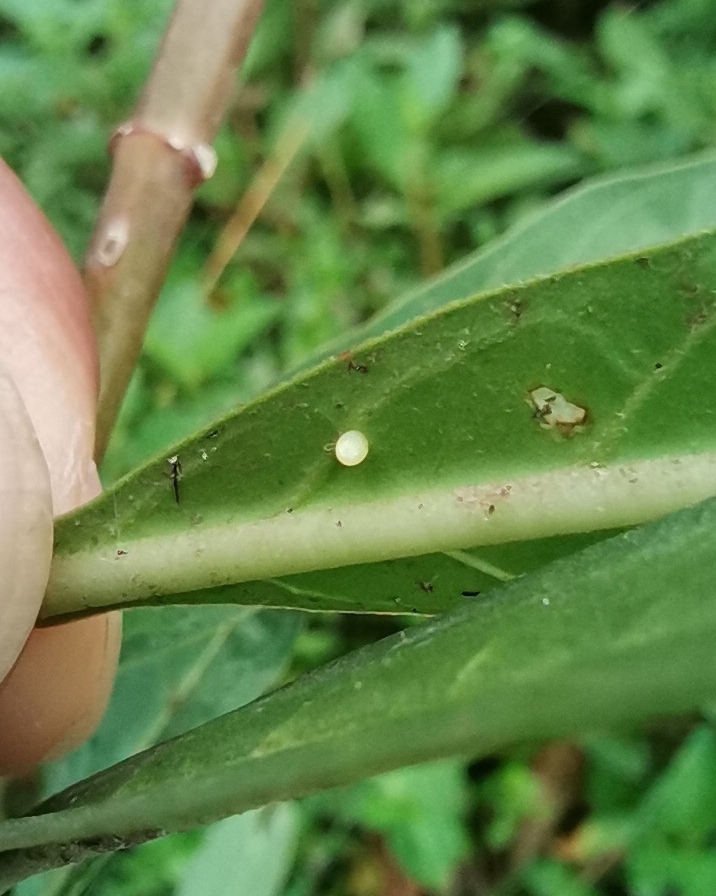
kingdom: Animalia
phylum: Arthropoda
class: Insecta
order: Lepidoptera
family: Nymphalidae
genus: Danaus
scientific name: Danaus plexippus
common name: Monarch
